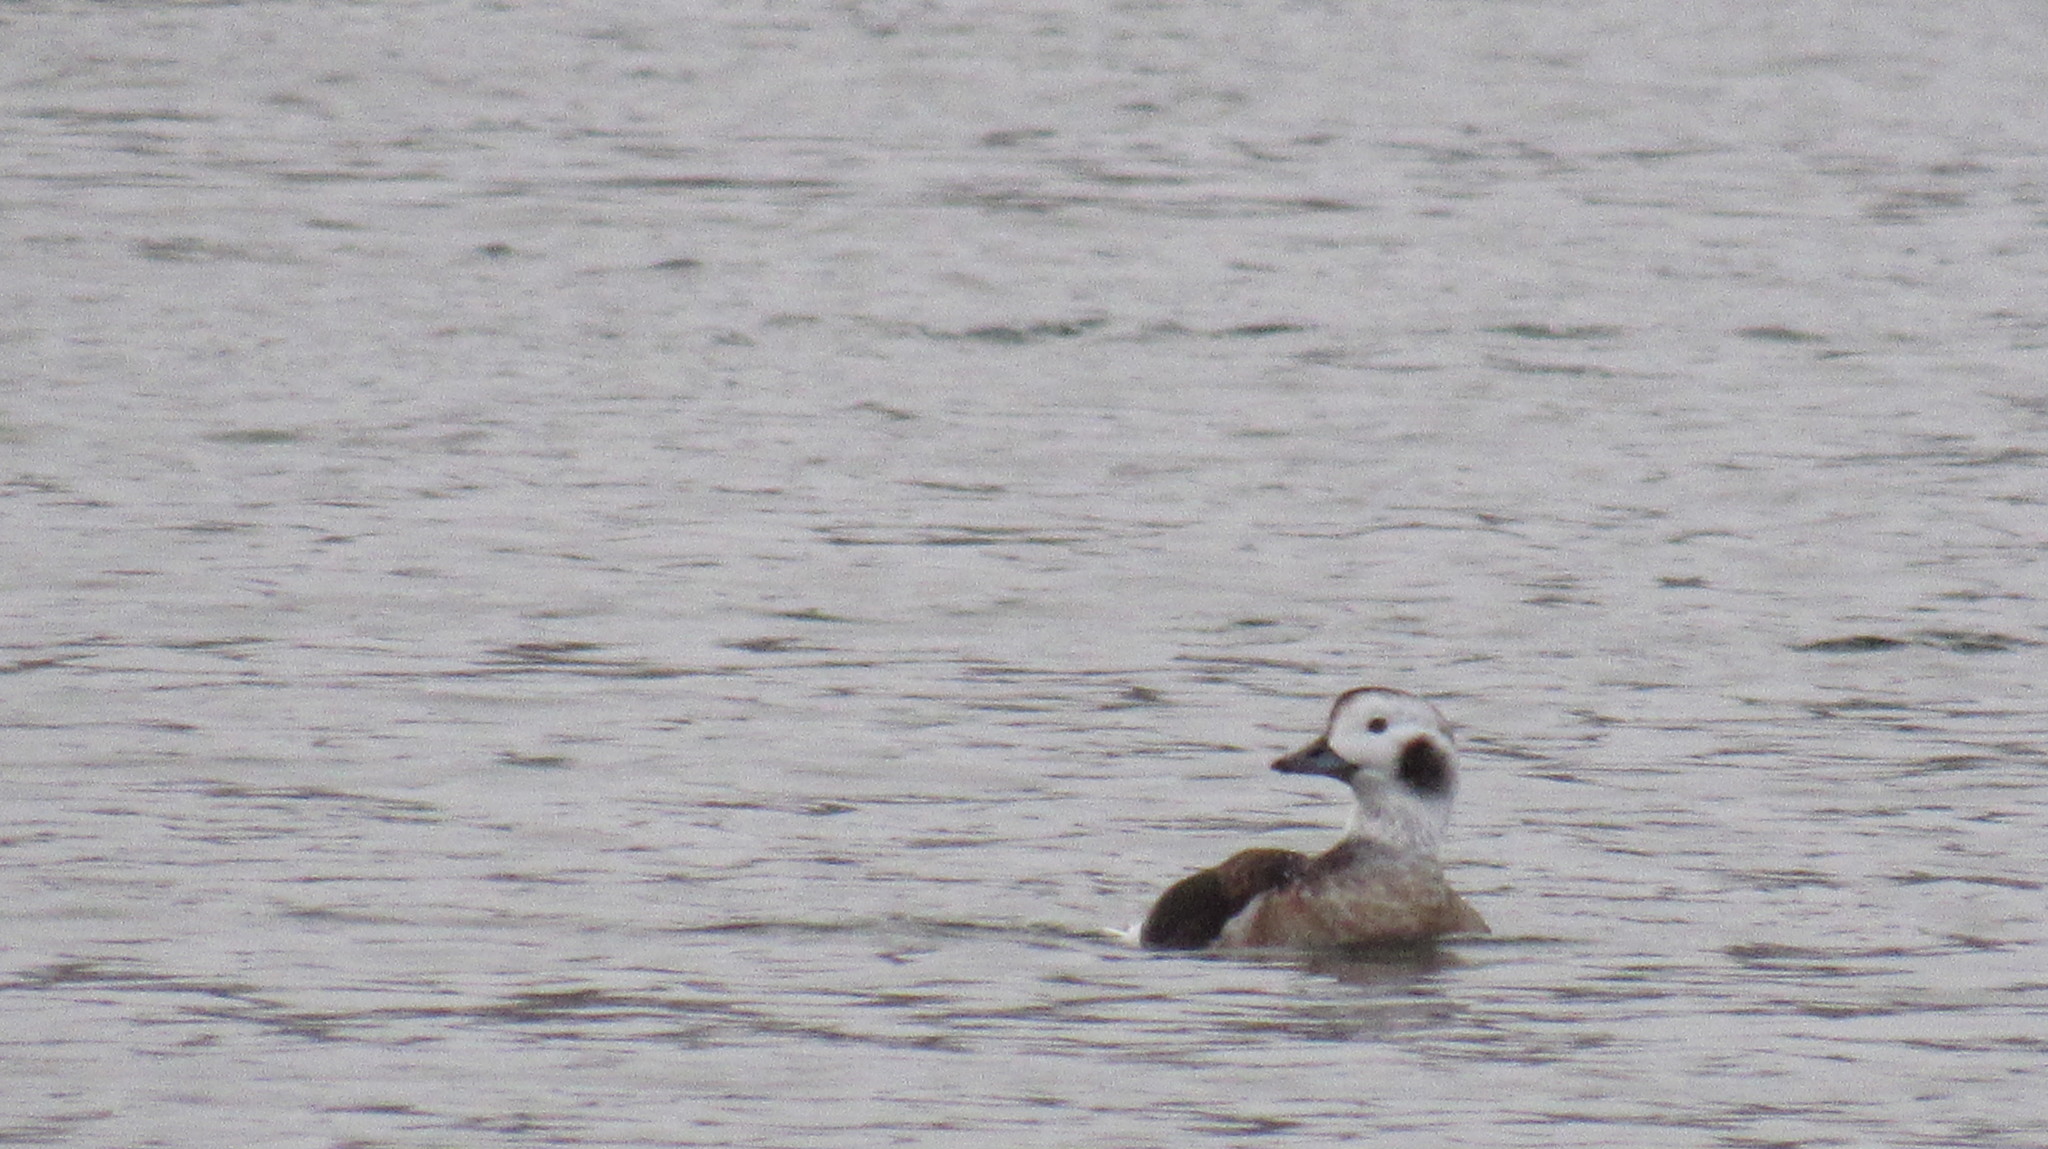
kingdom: Animalia
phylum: Chordata
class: Aves
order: Anseriformes
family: Anatidae
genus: Clangula
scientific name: Clangula hyemalis
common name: Long-tailed duck
